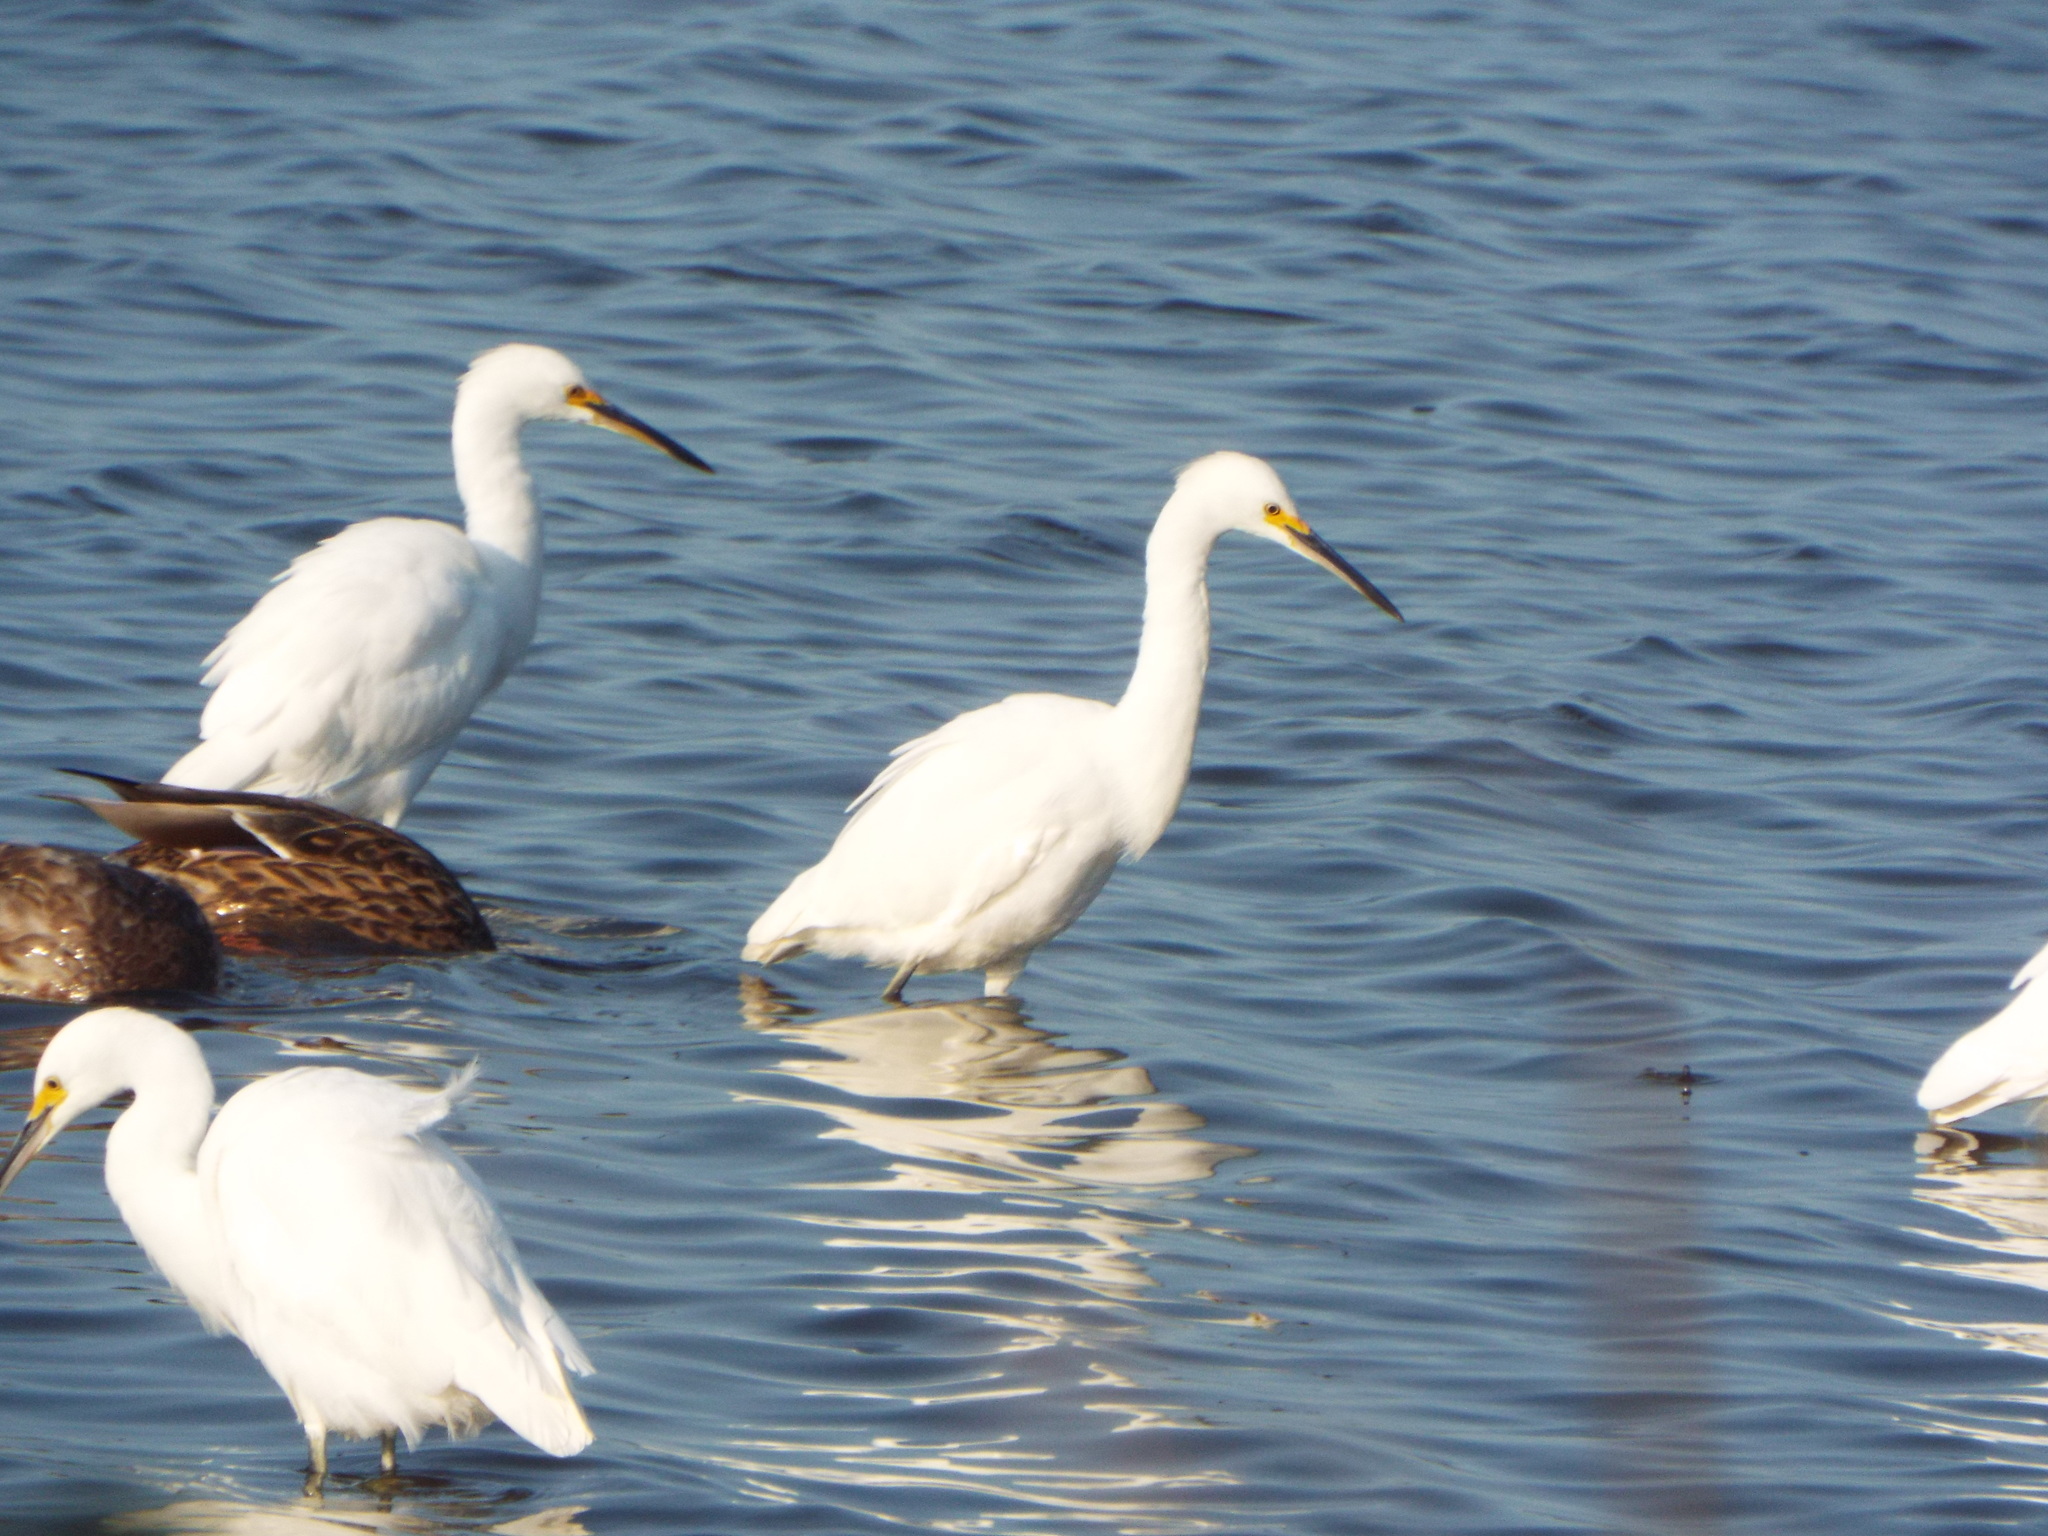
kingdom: Animalia
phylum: Chordata
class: Aves
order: Pelecaniformes
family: Ardeidae
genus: Egretta
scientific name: Egretta thula
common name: Snowy egret
